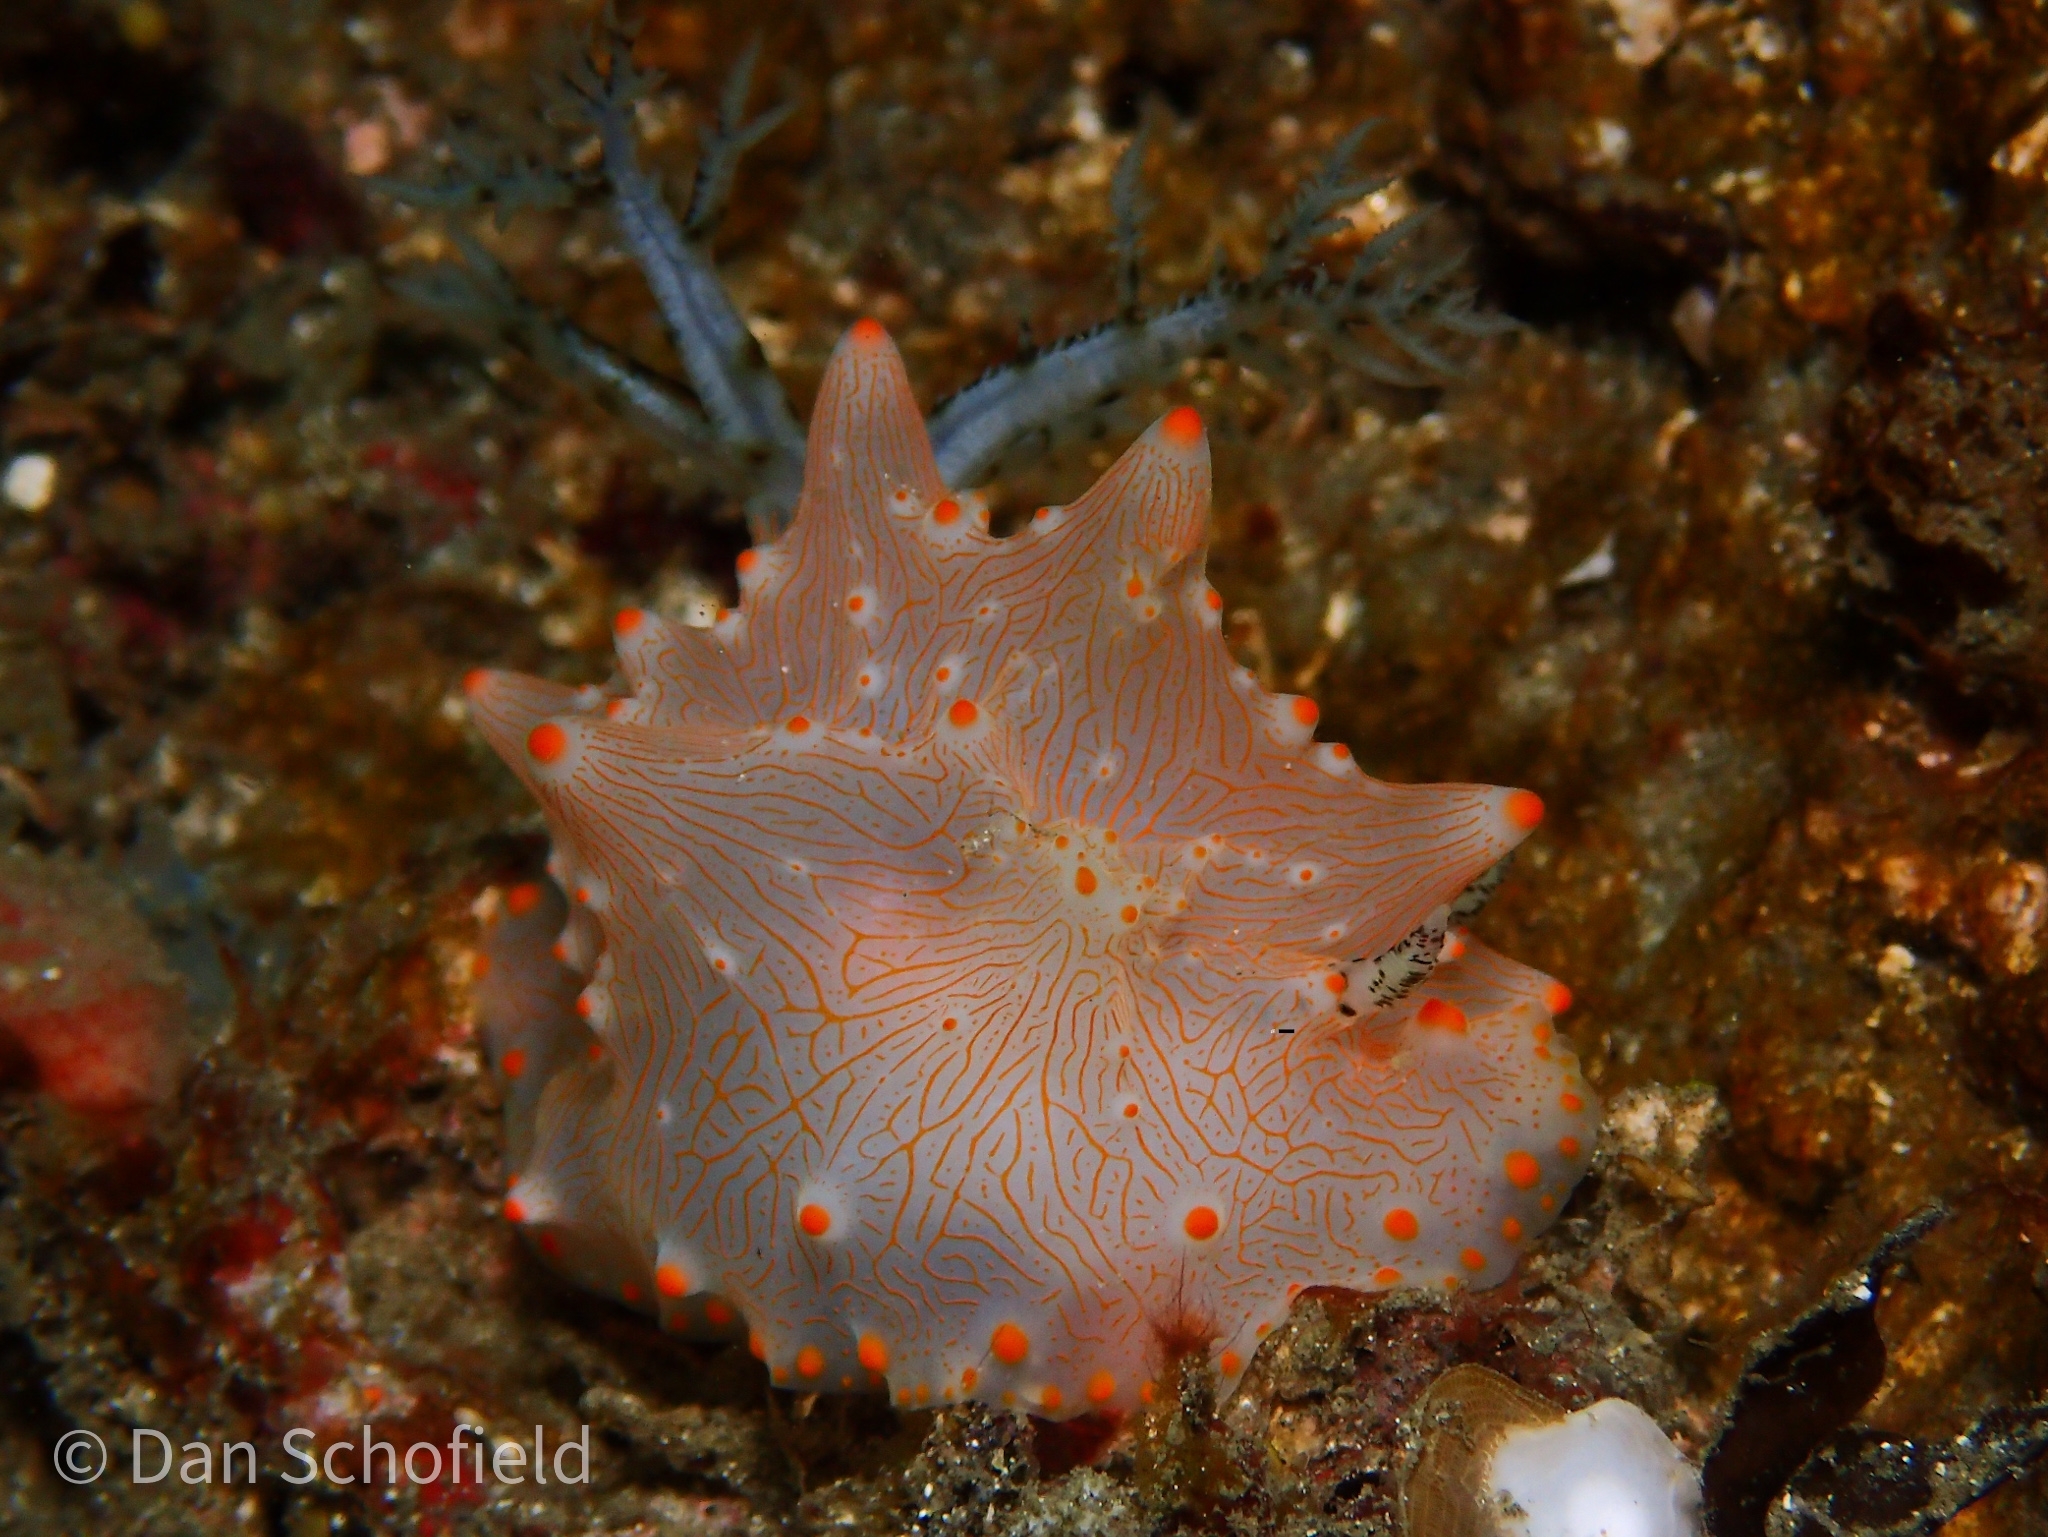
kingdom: Animalia
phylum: Mollusca
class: Gastropoda
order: Nudibranchia
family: Discodorididae
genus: Halgerda
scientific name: Halgerda batangas
